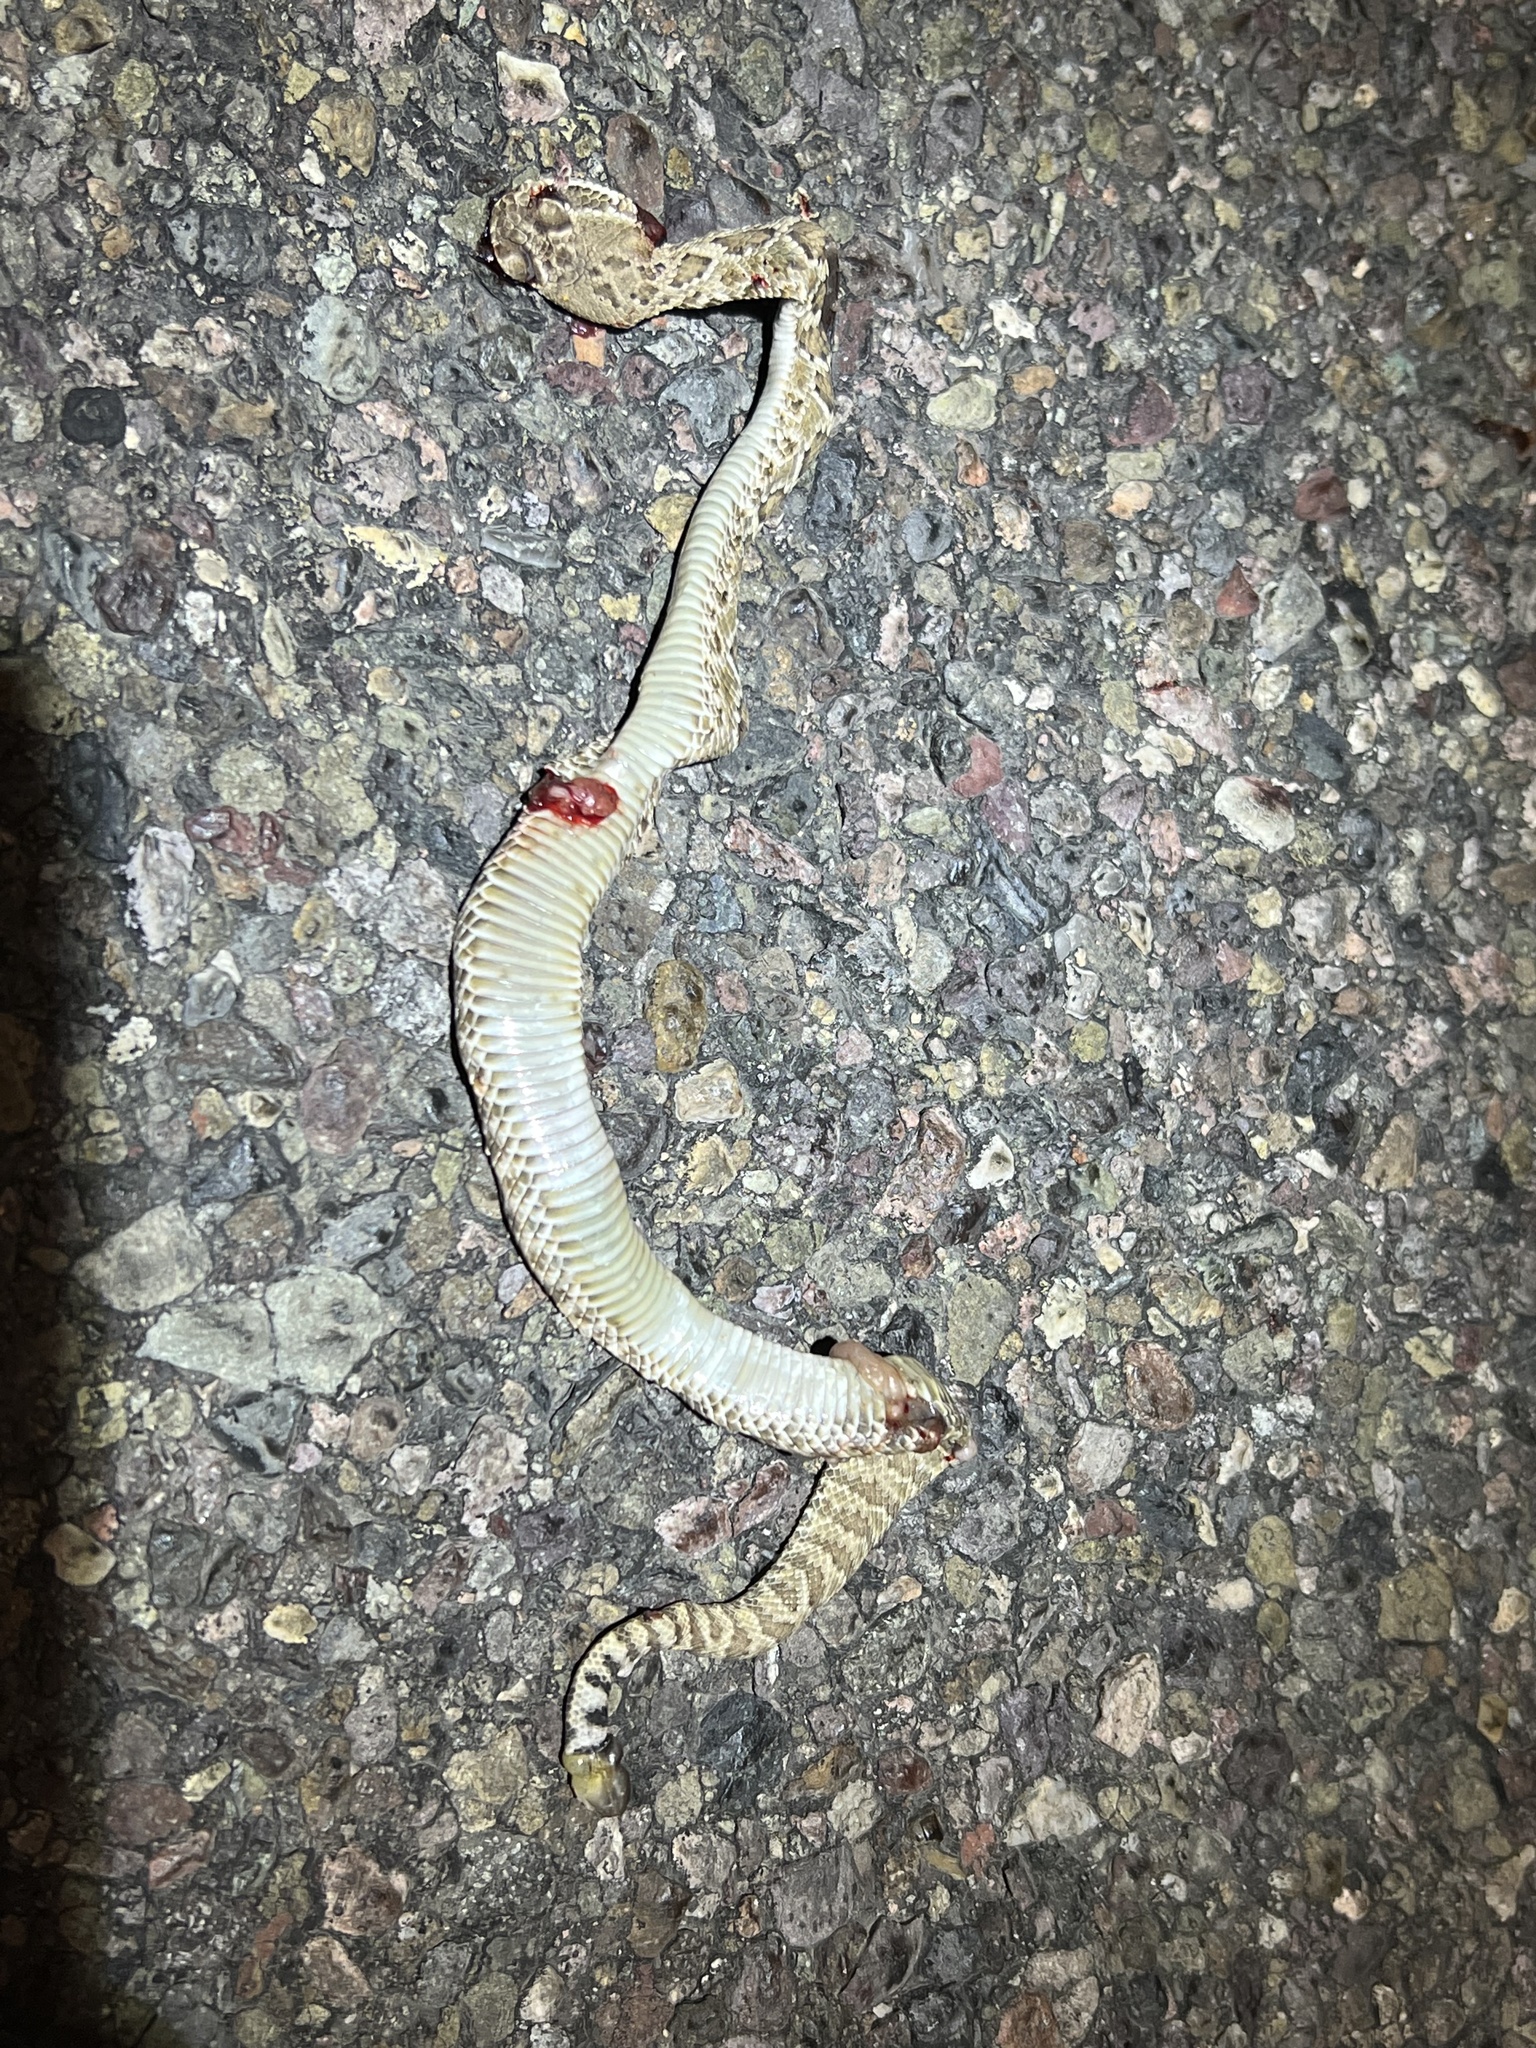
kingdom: Animalia
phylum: Chordata
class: Squamata
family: Viperidae
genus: Crotalus
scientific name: Crotalus scutulatus
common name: Scutulatus
